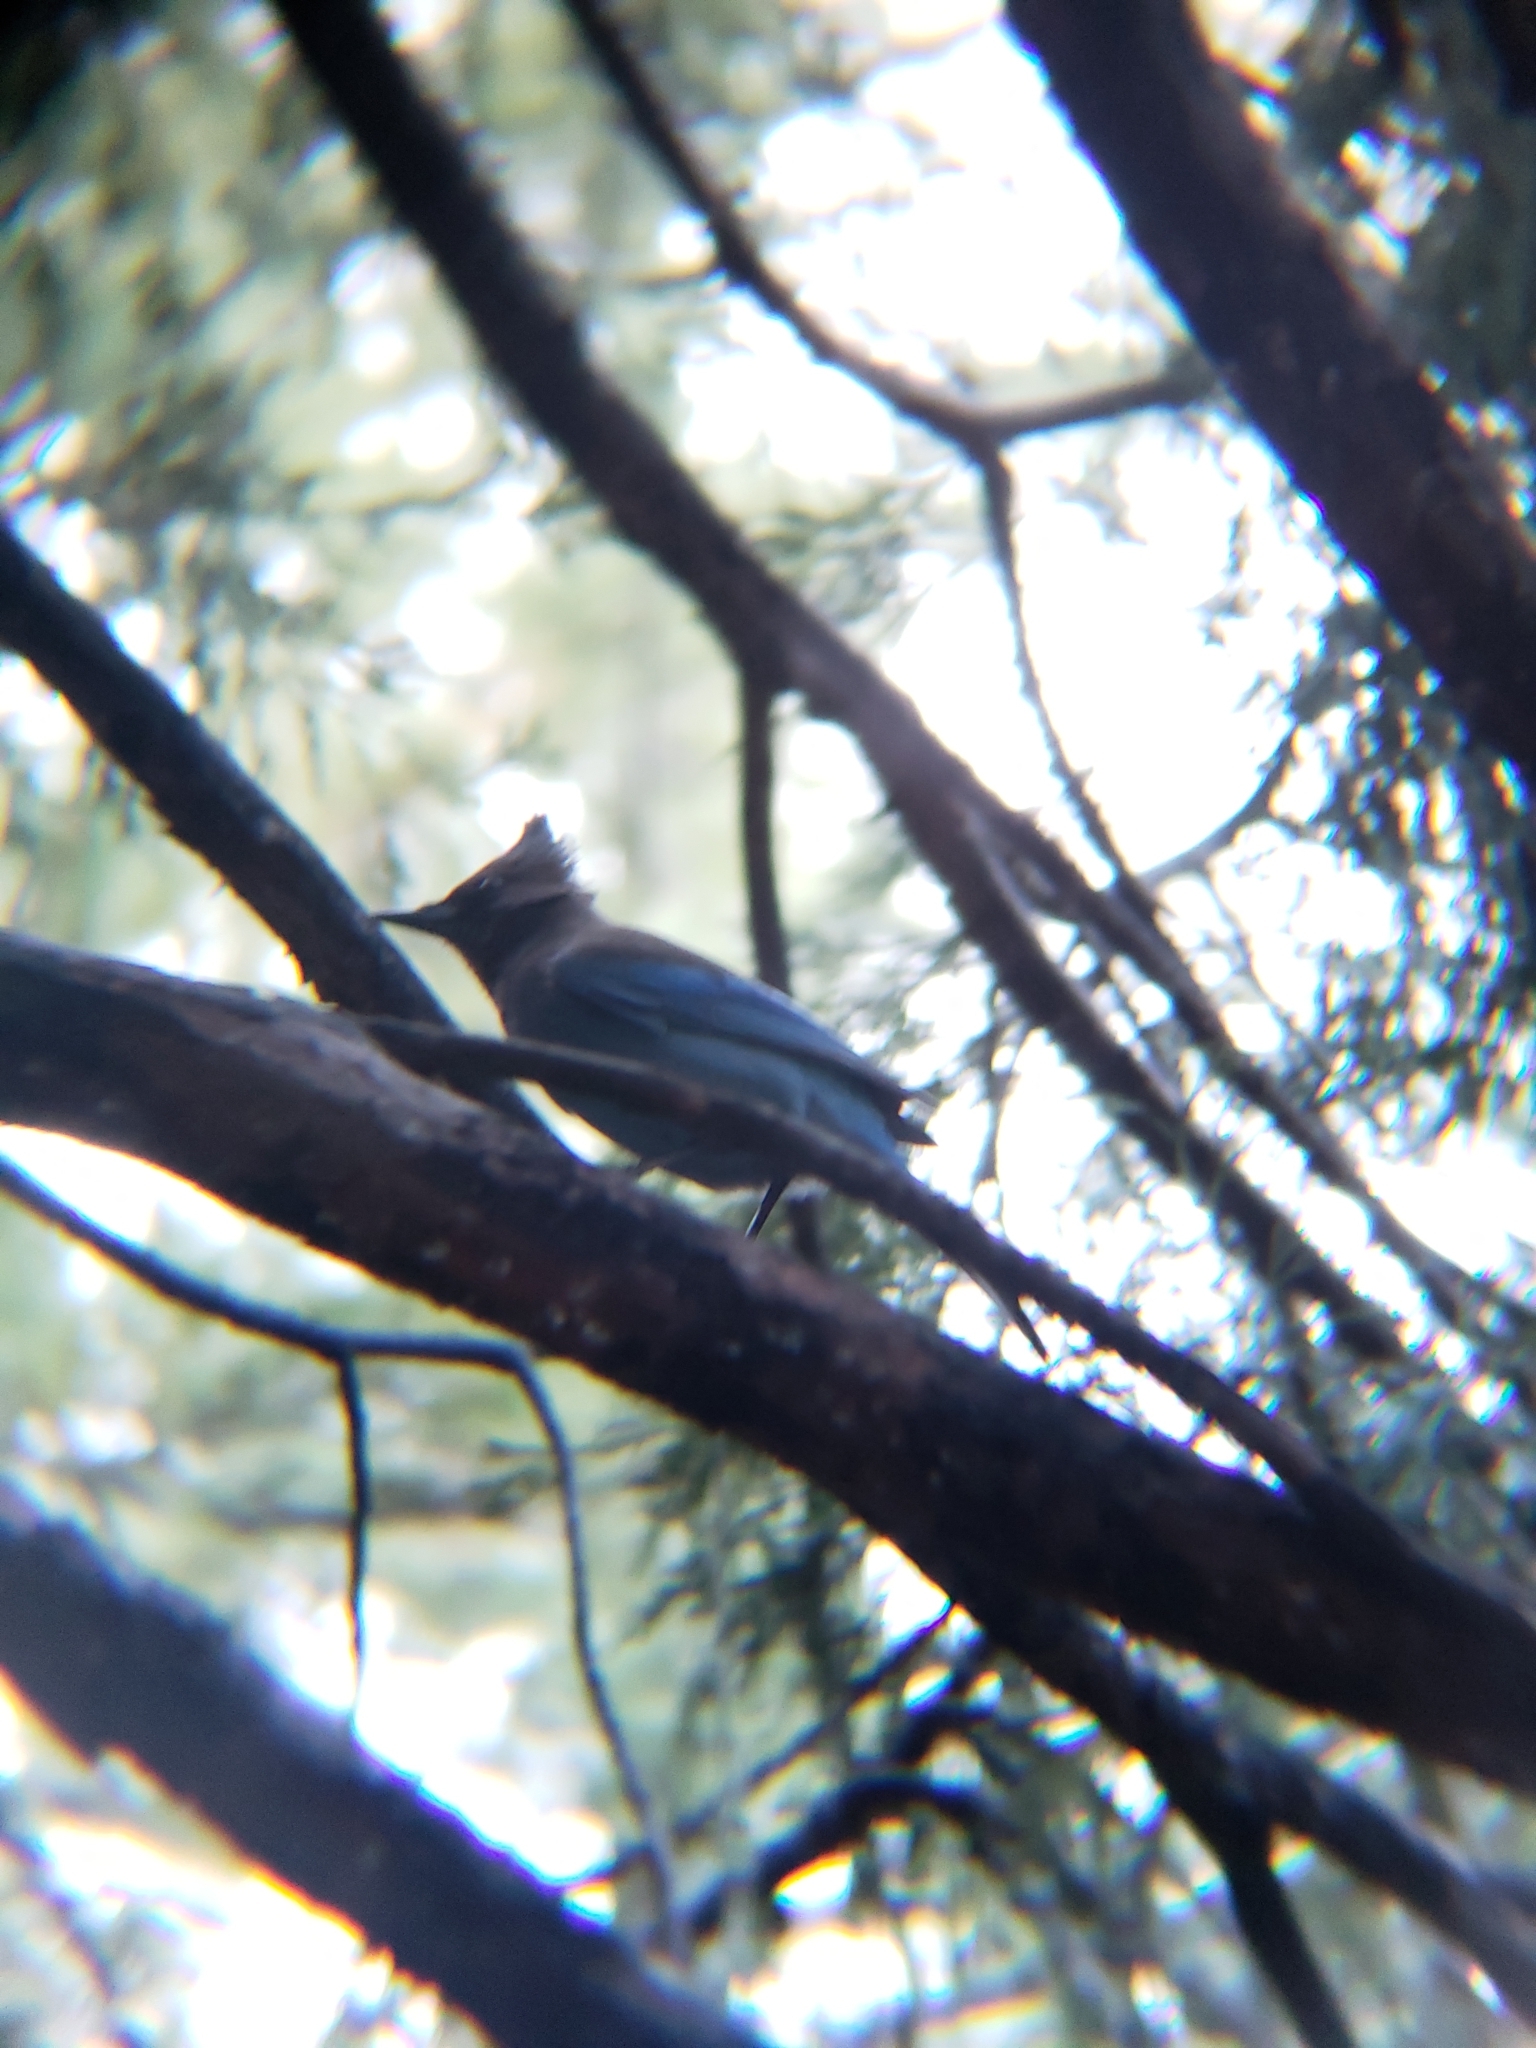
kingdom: Animalia
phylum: Chordata
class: Aves
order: Passeriformes
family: Corvidae
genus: Cyanocitta
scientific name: Cyanocitta stelleri
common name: Steller's jay
